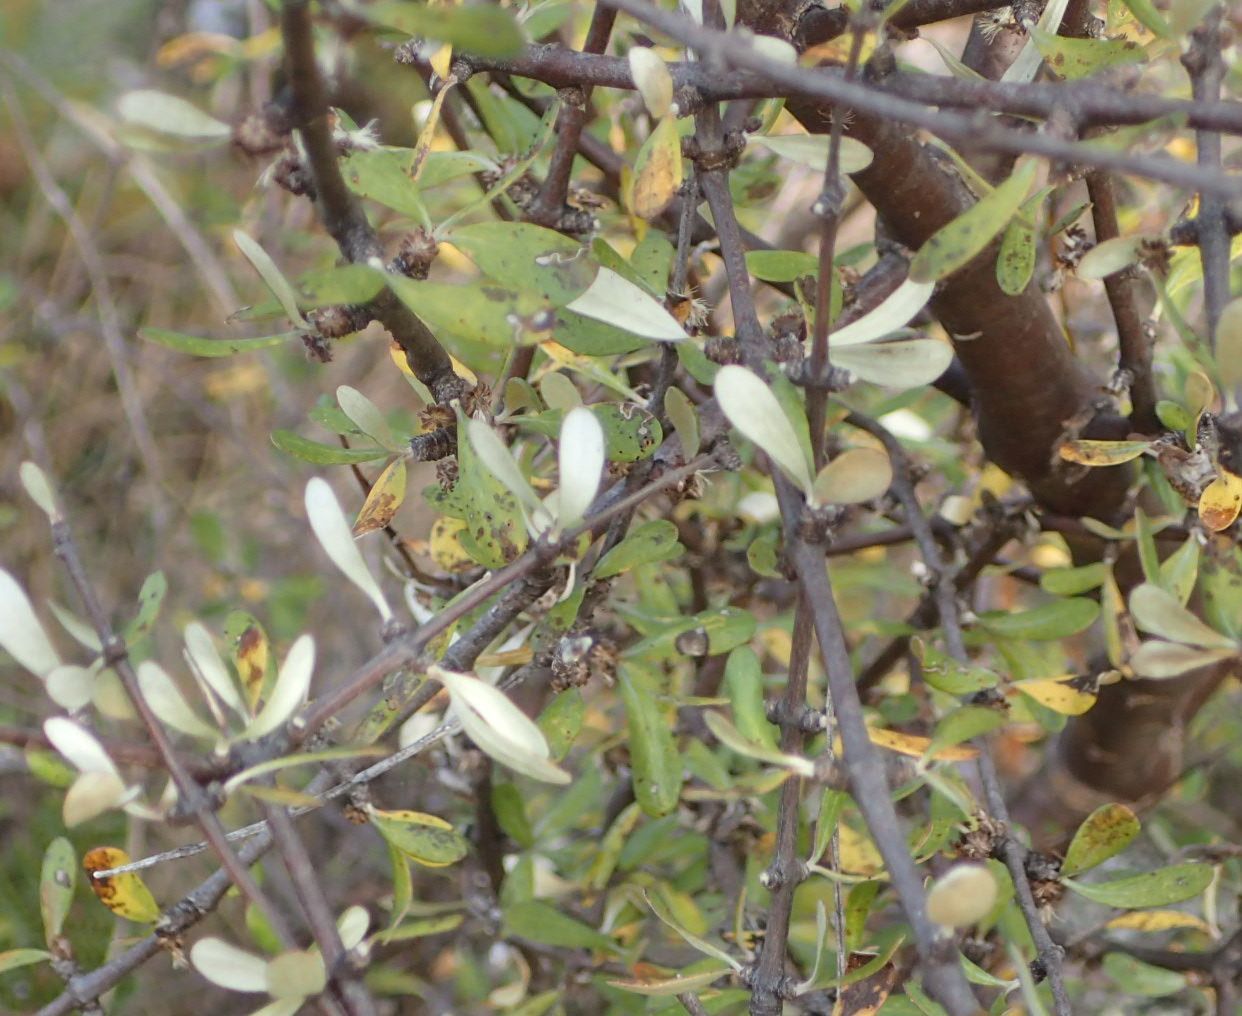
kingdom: Plantae
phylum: Tracheophyta
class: Magnoliopsida
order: Asterales
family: Asteraceae
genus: Olearia
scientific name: Olearia odorata
